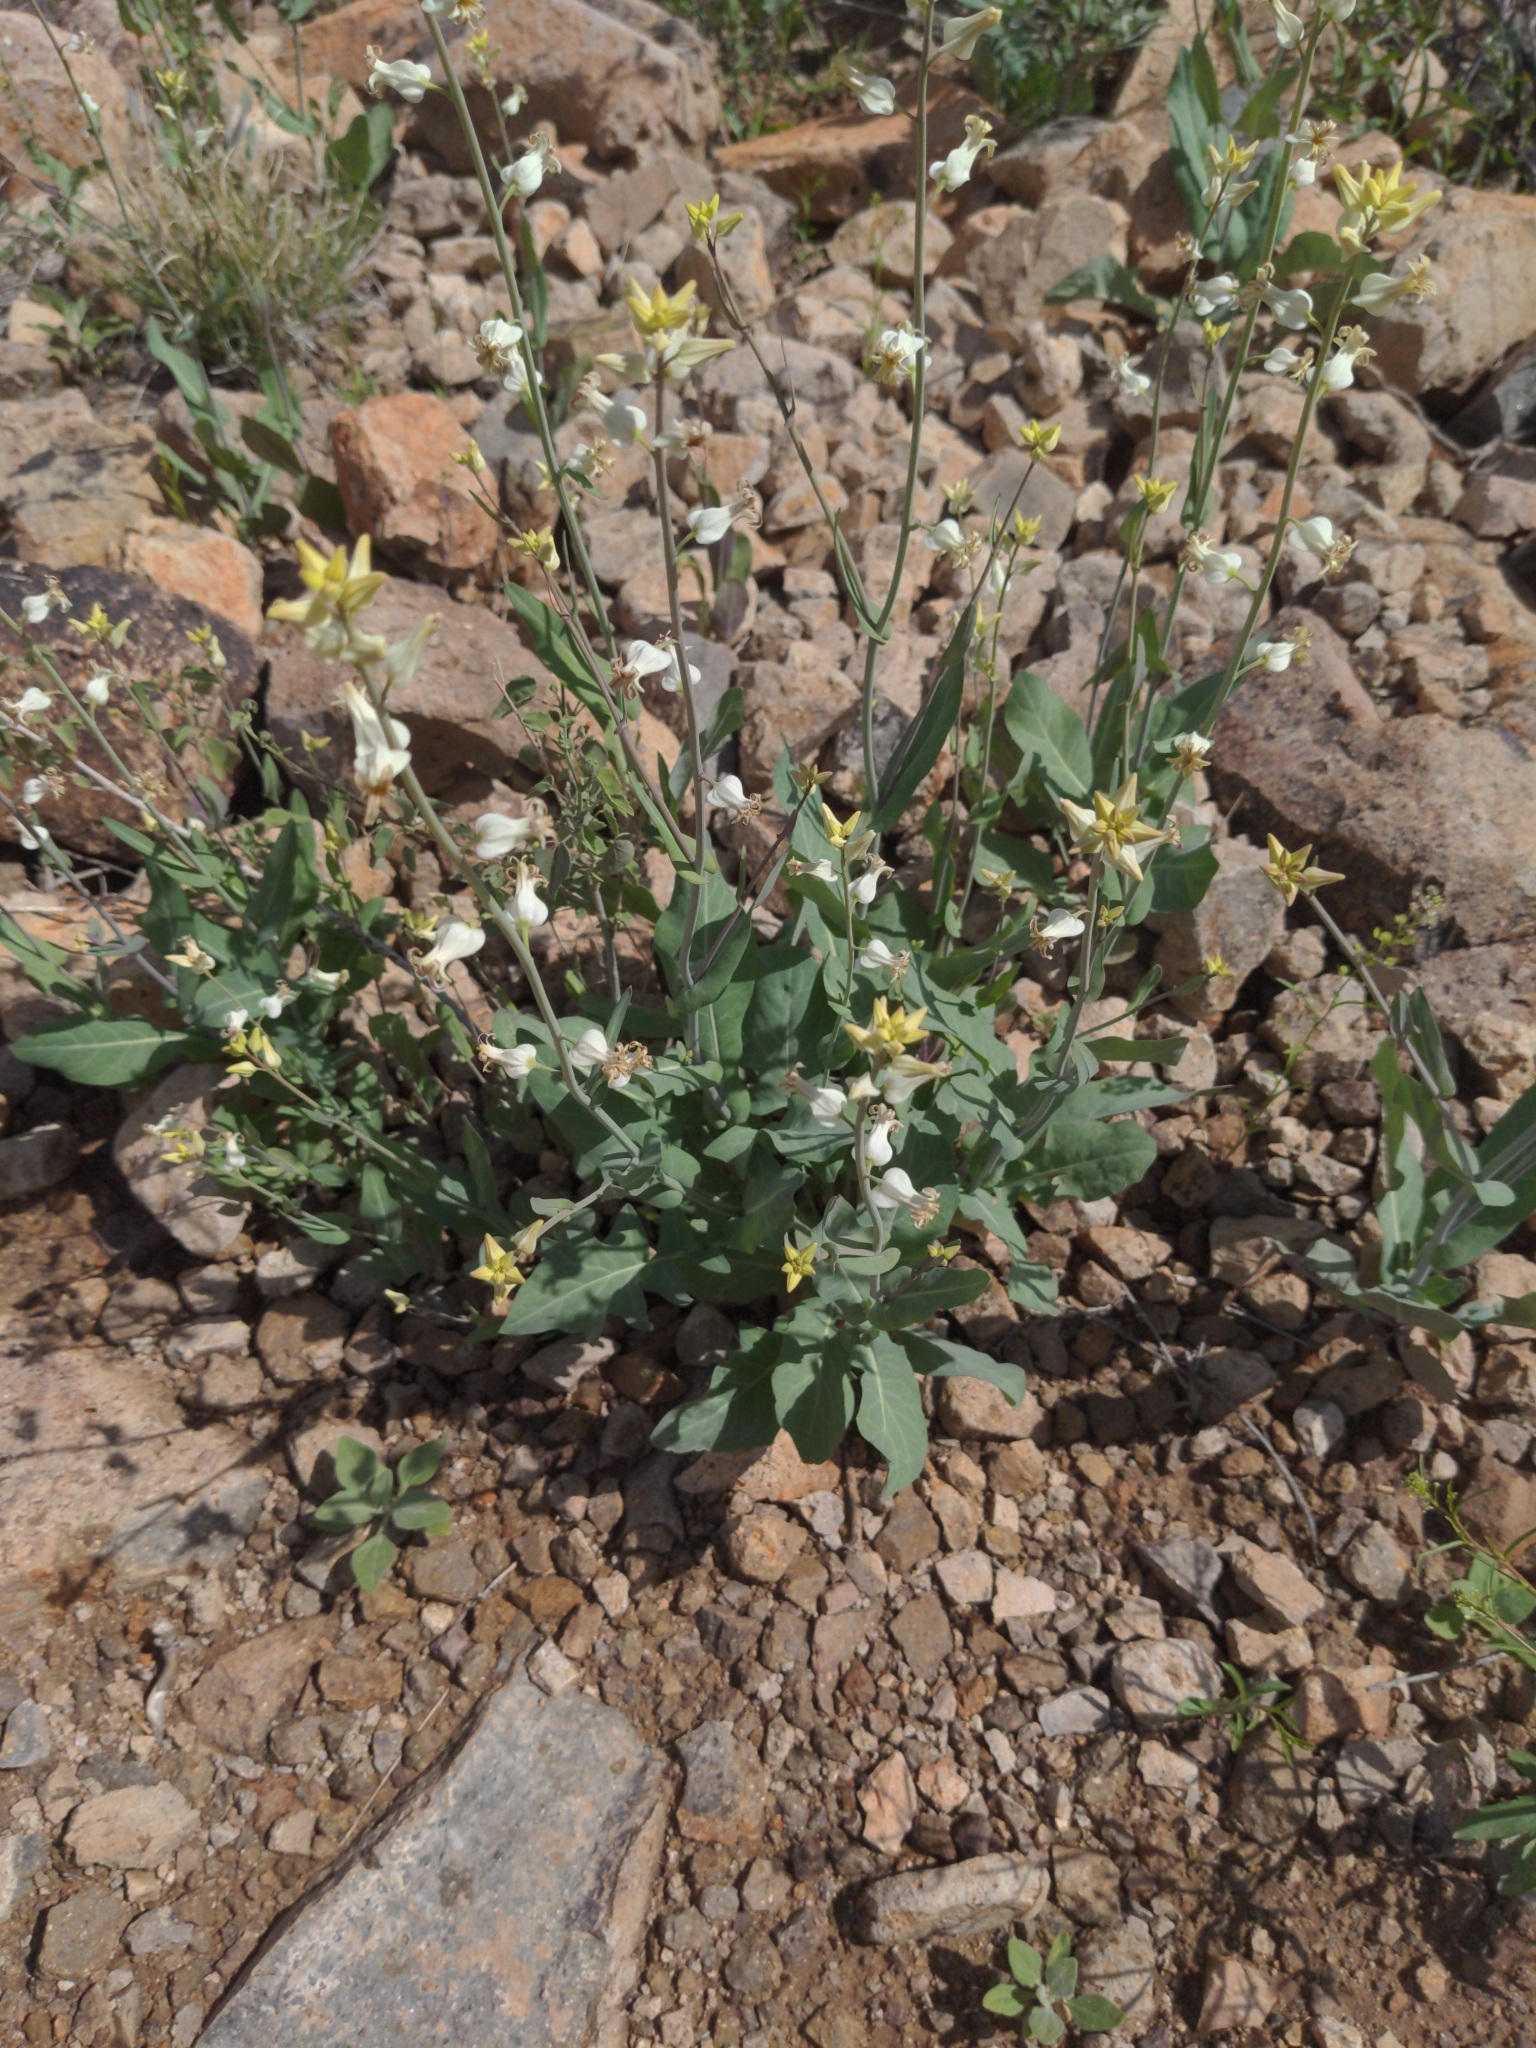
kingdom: Plantae
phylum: Tracheophyta
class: Magnoliopsida
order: Brassicales
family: Brassicaceae
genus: Streptanthus
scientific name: Streptanthus carinatus
